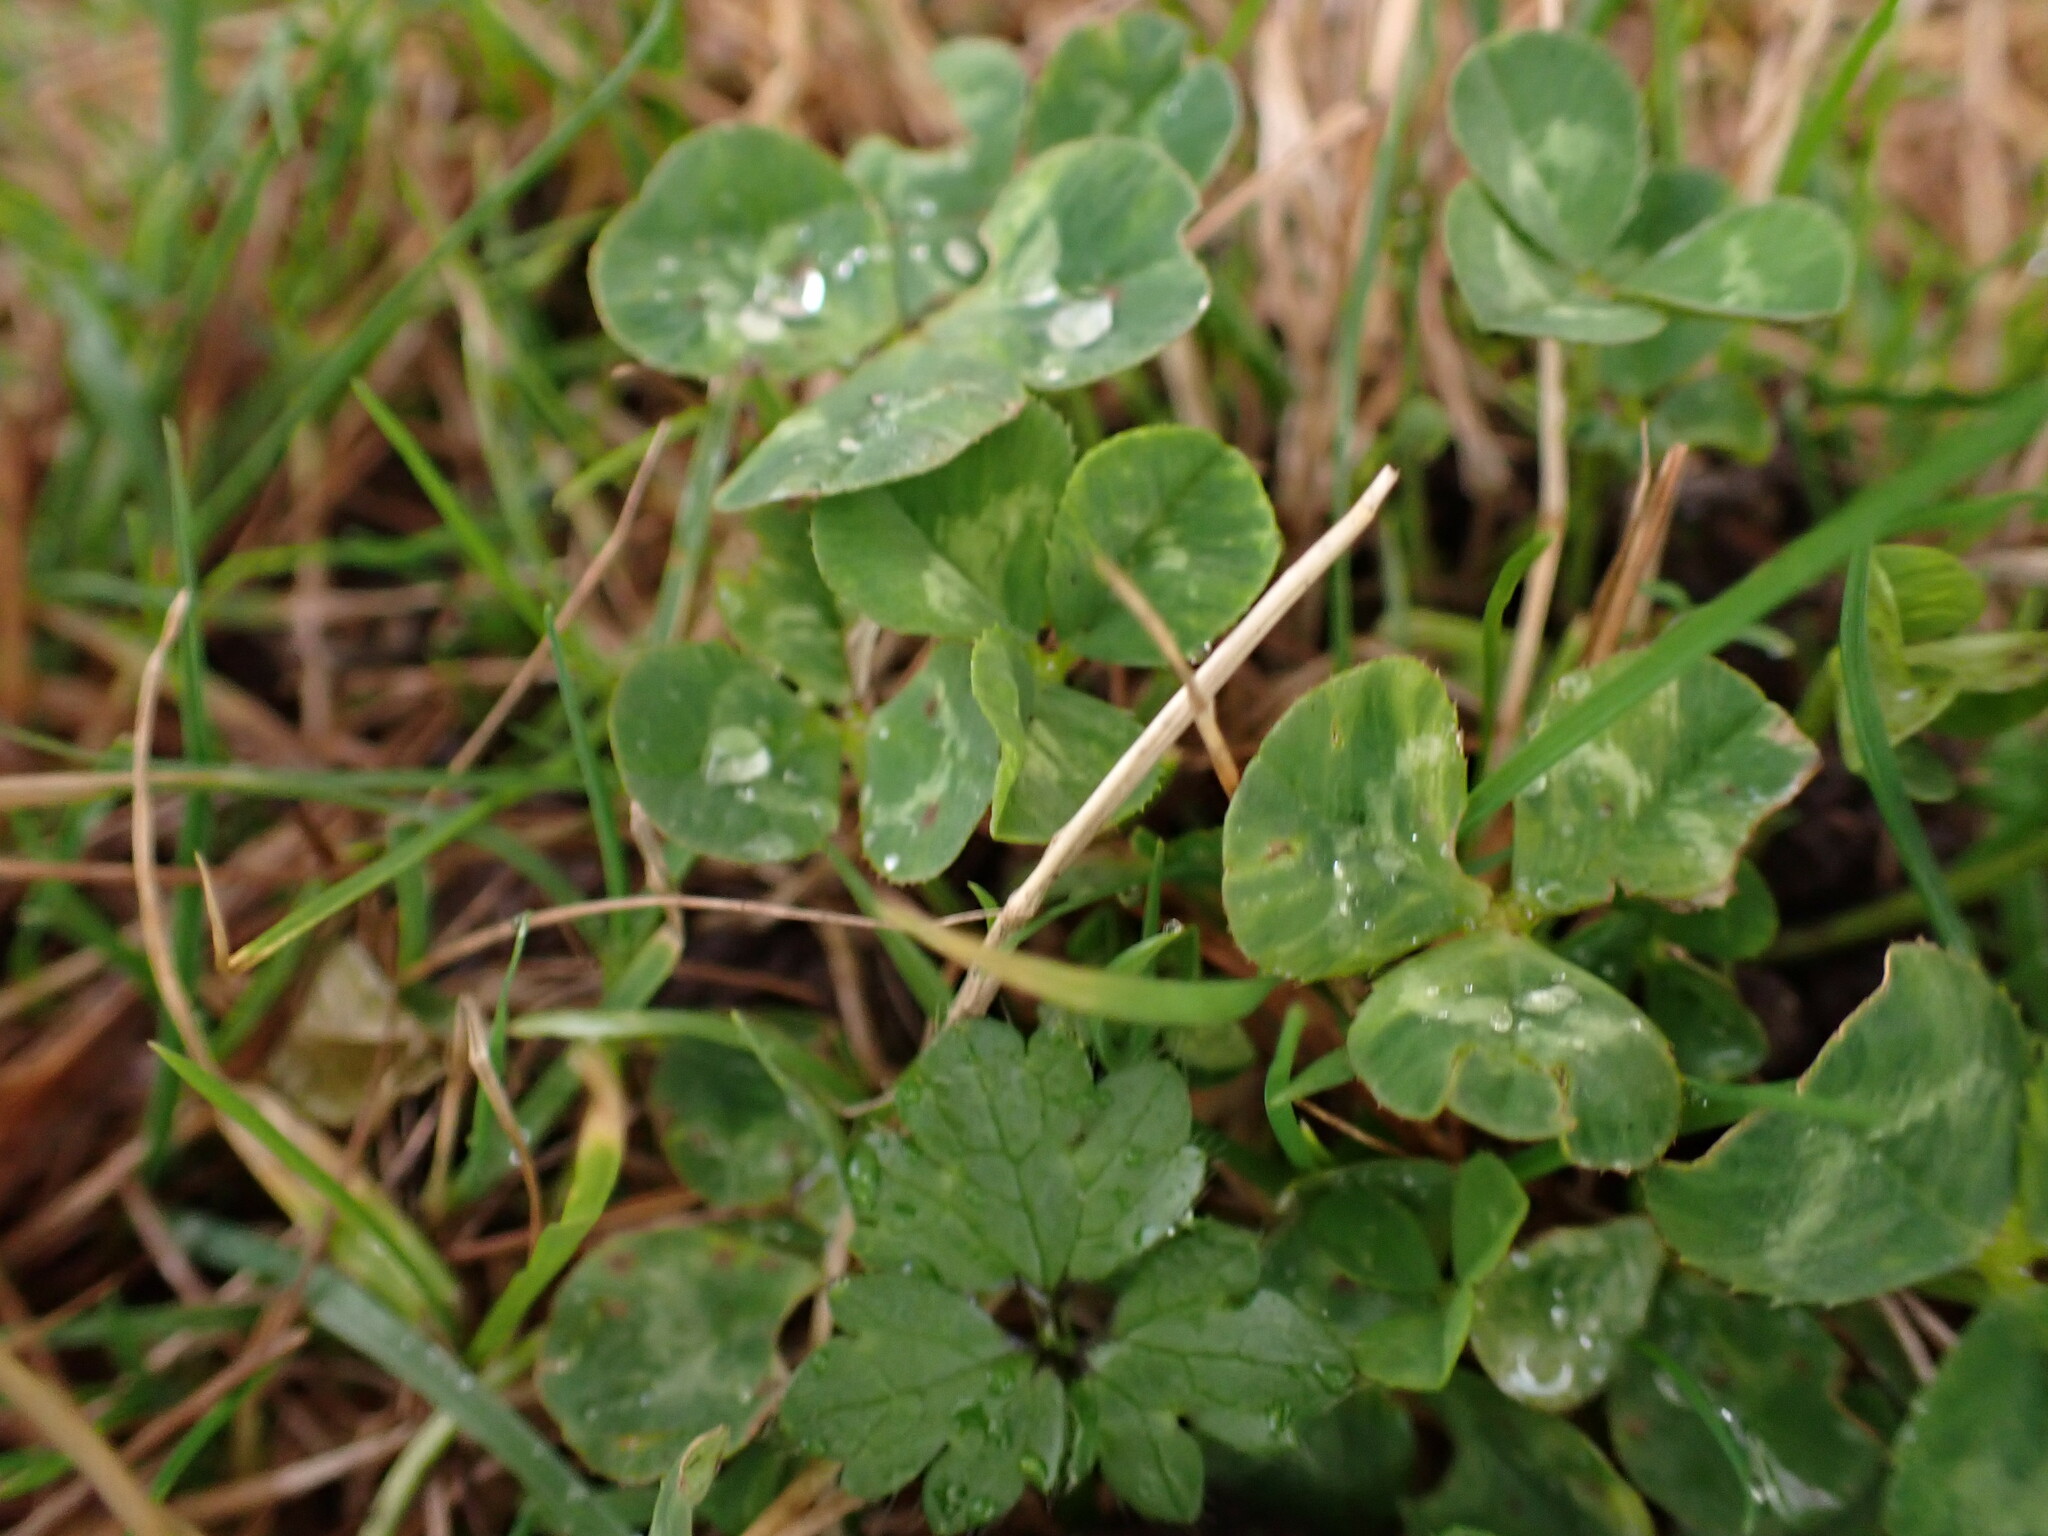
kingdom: Plantae
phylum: Tracheophyta
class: Magnoliopsida
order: Fabales
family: Fabaceae
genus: Trifolium
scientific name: Trifolium repens
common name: White clover
